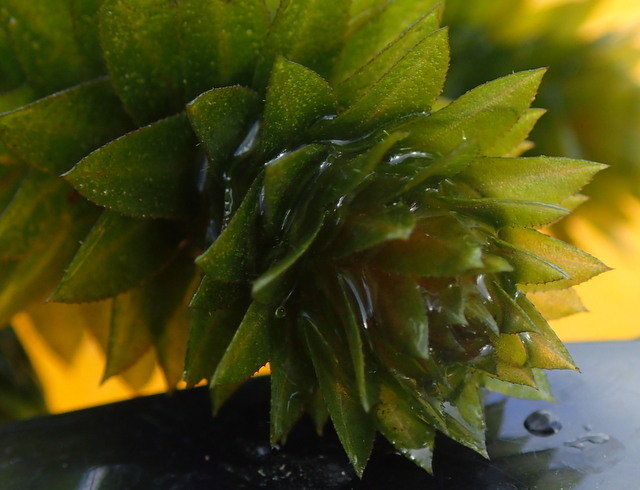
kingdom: Plantae
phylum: Tracheophyta
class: Liliopsida
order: Alismatales
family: Hydrocharitaceae
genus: Hydrilla
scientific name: Hydrilla verticillata
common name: Florida-elodea
